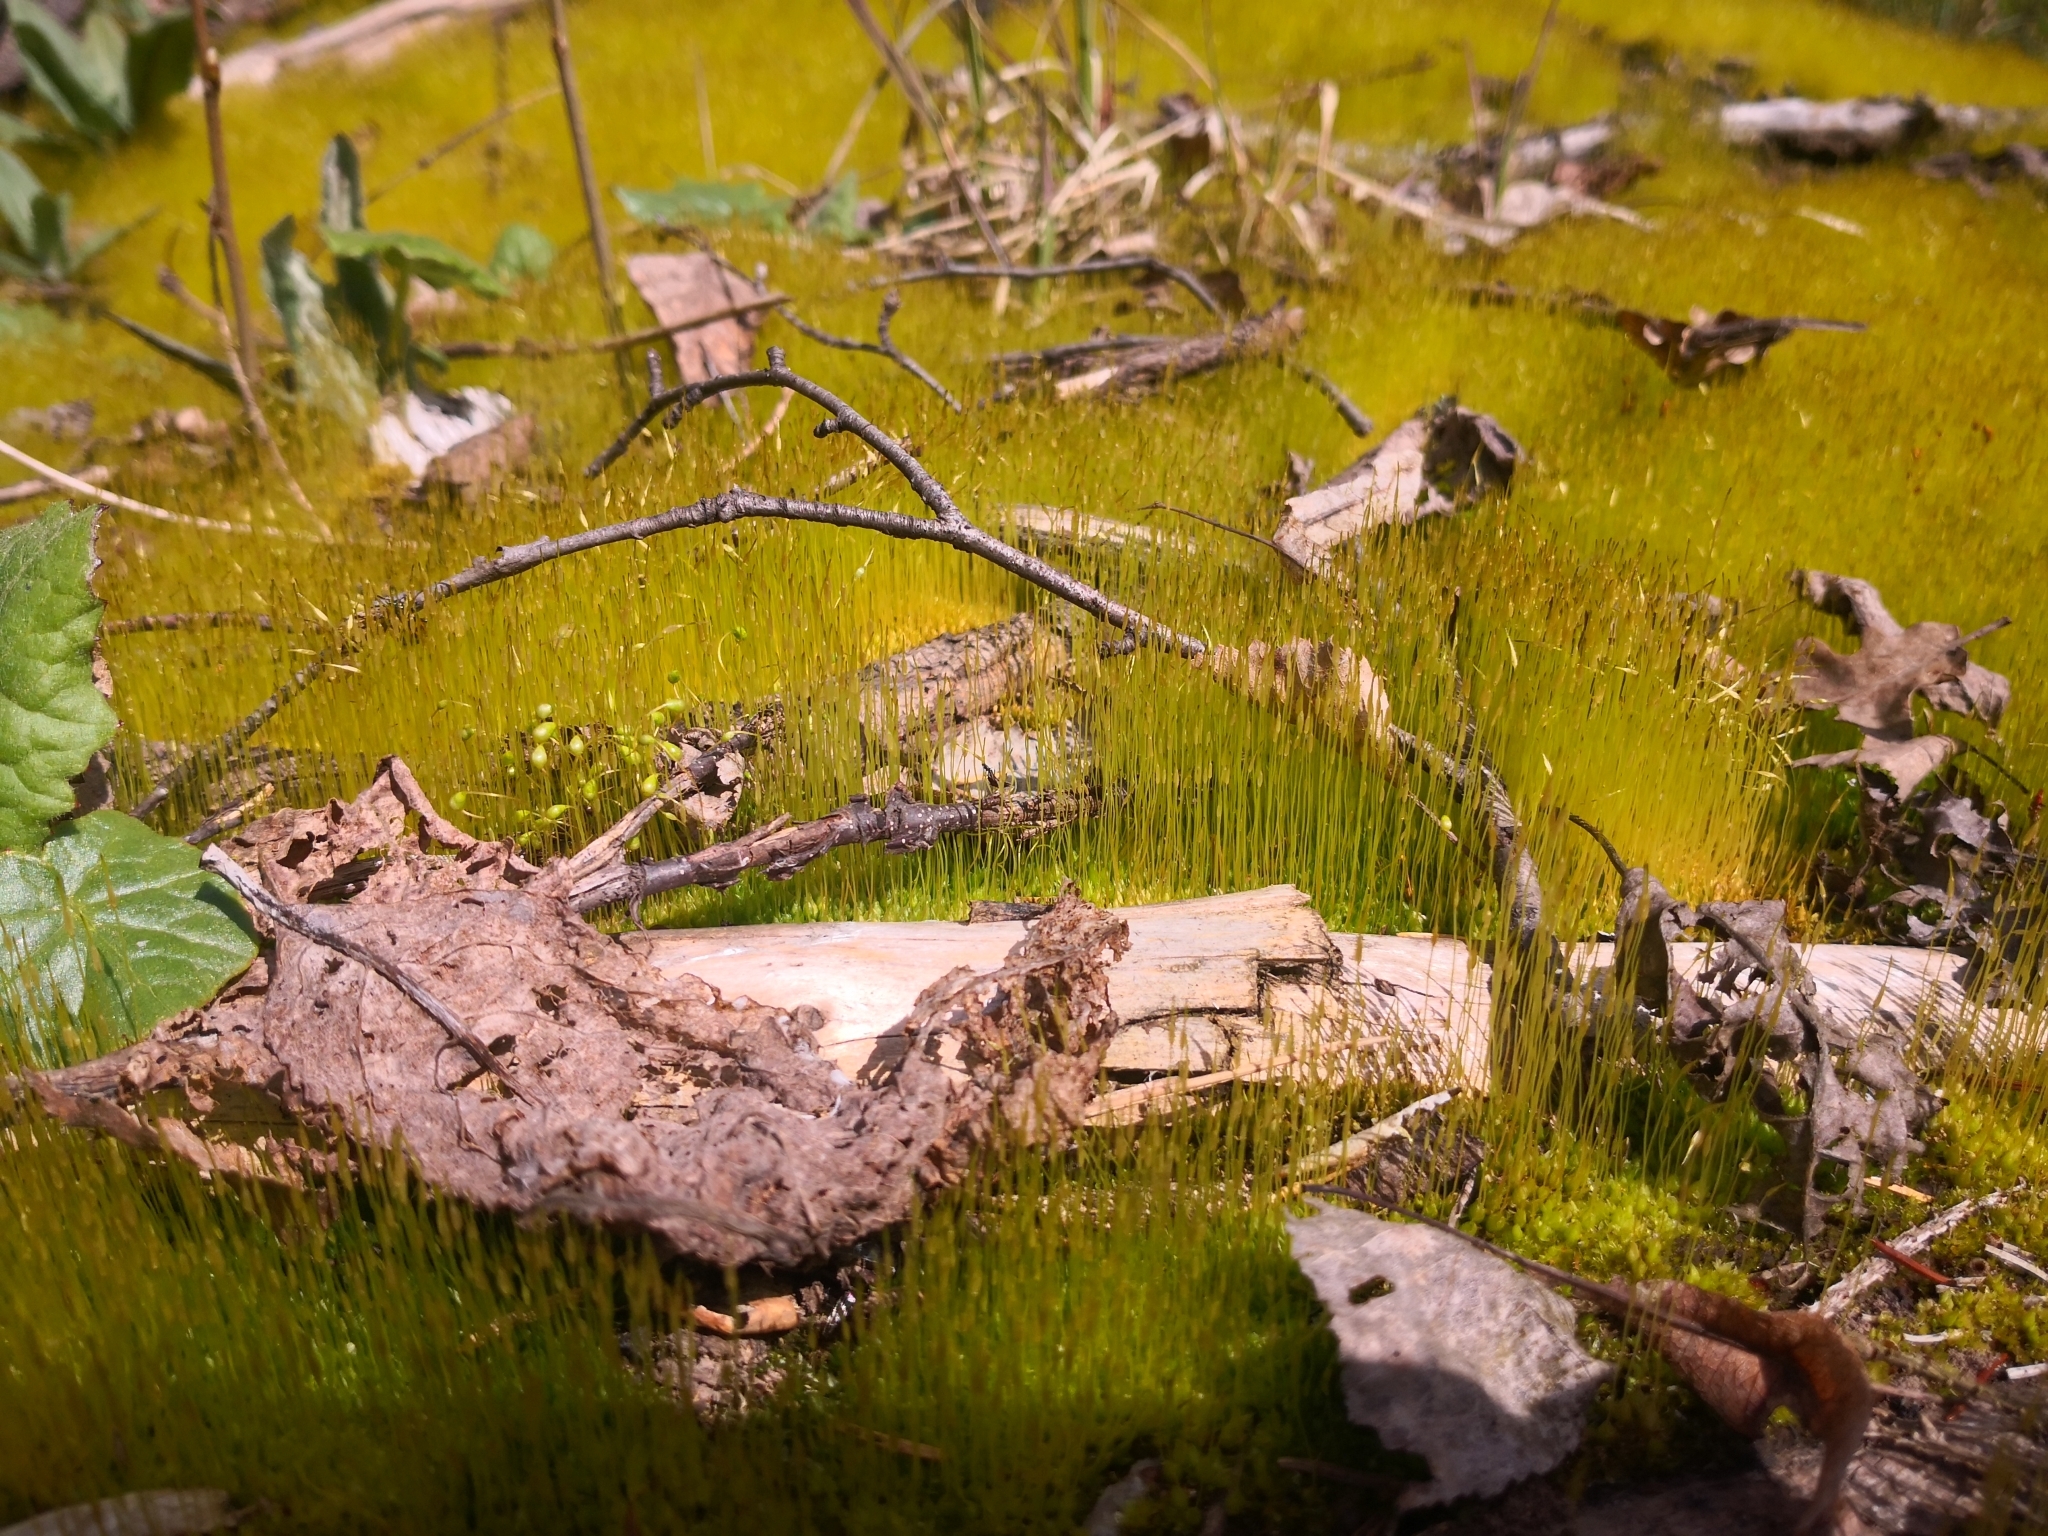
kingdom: Plantae
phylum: Bryophyta
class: Bryopsida
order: Funariales
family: Funariaceae
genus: Funaria
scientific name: Funaria hygrometrica
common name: Common cord moss
